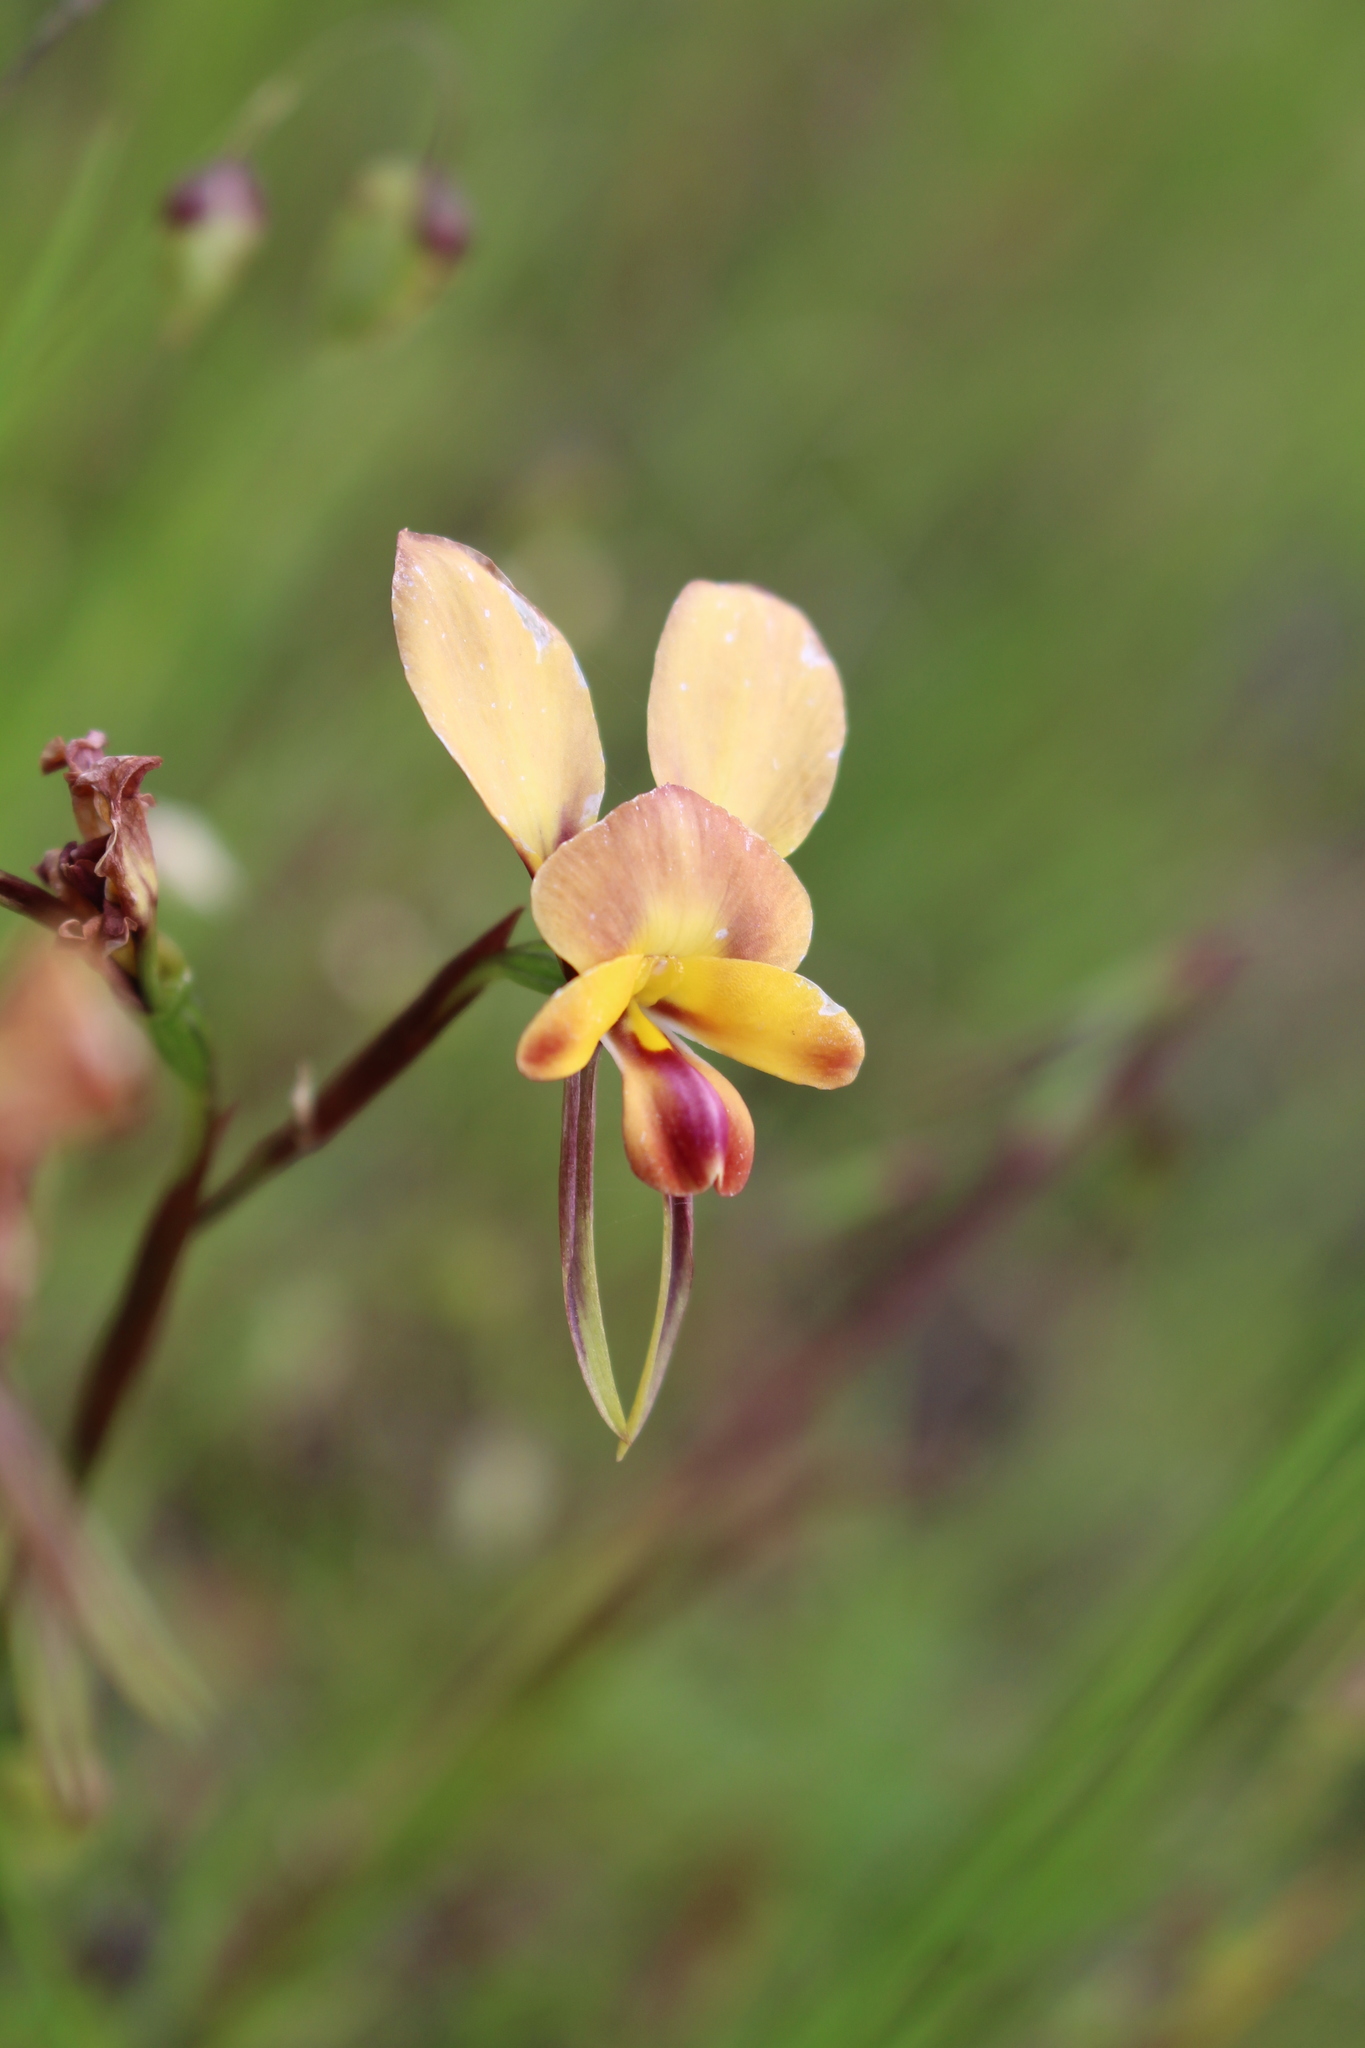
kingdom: Plantae
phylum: Tracheophyta
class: Liliopsida
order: Asparagales
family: Orchidaceae
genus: Diuris
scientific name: Diuris jonesii
